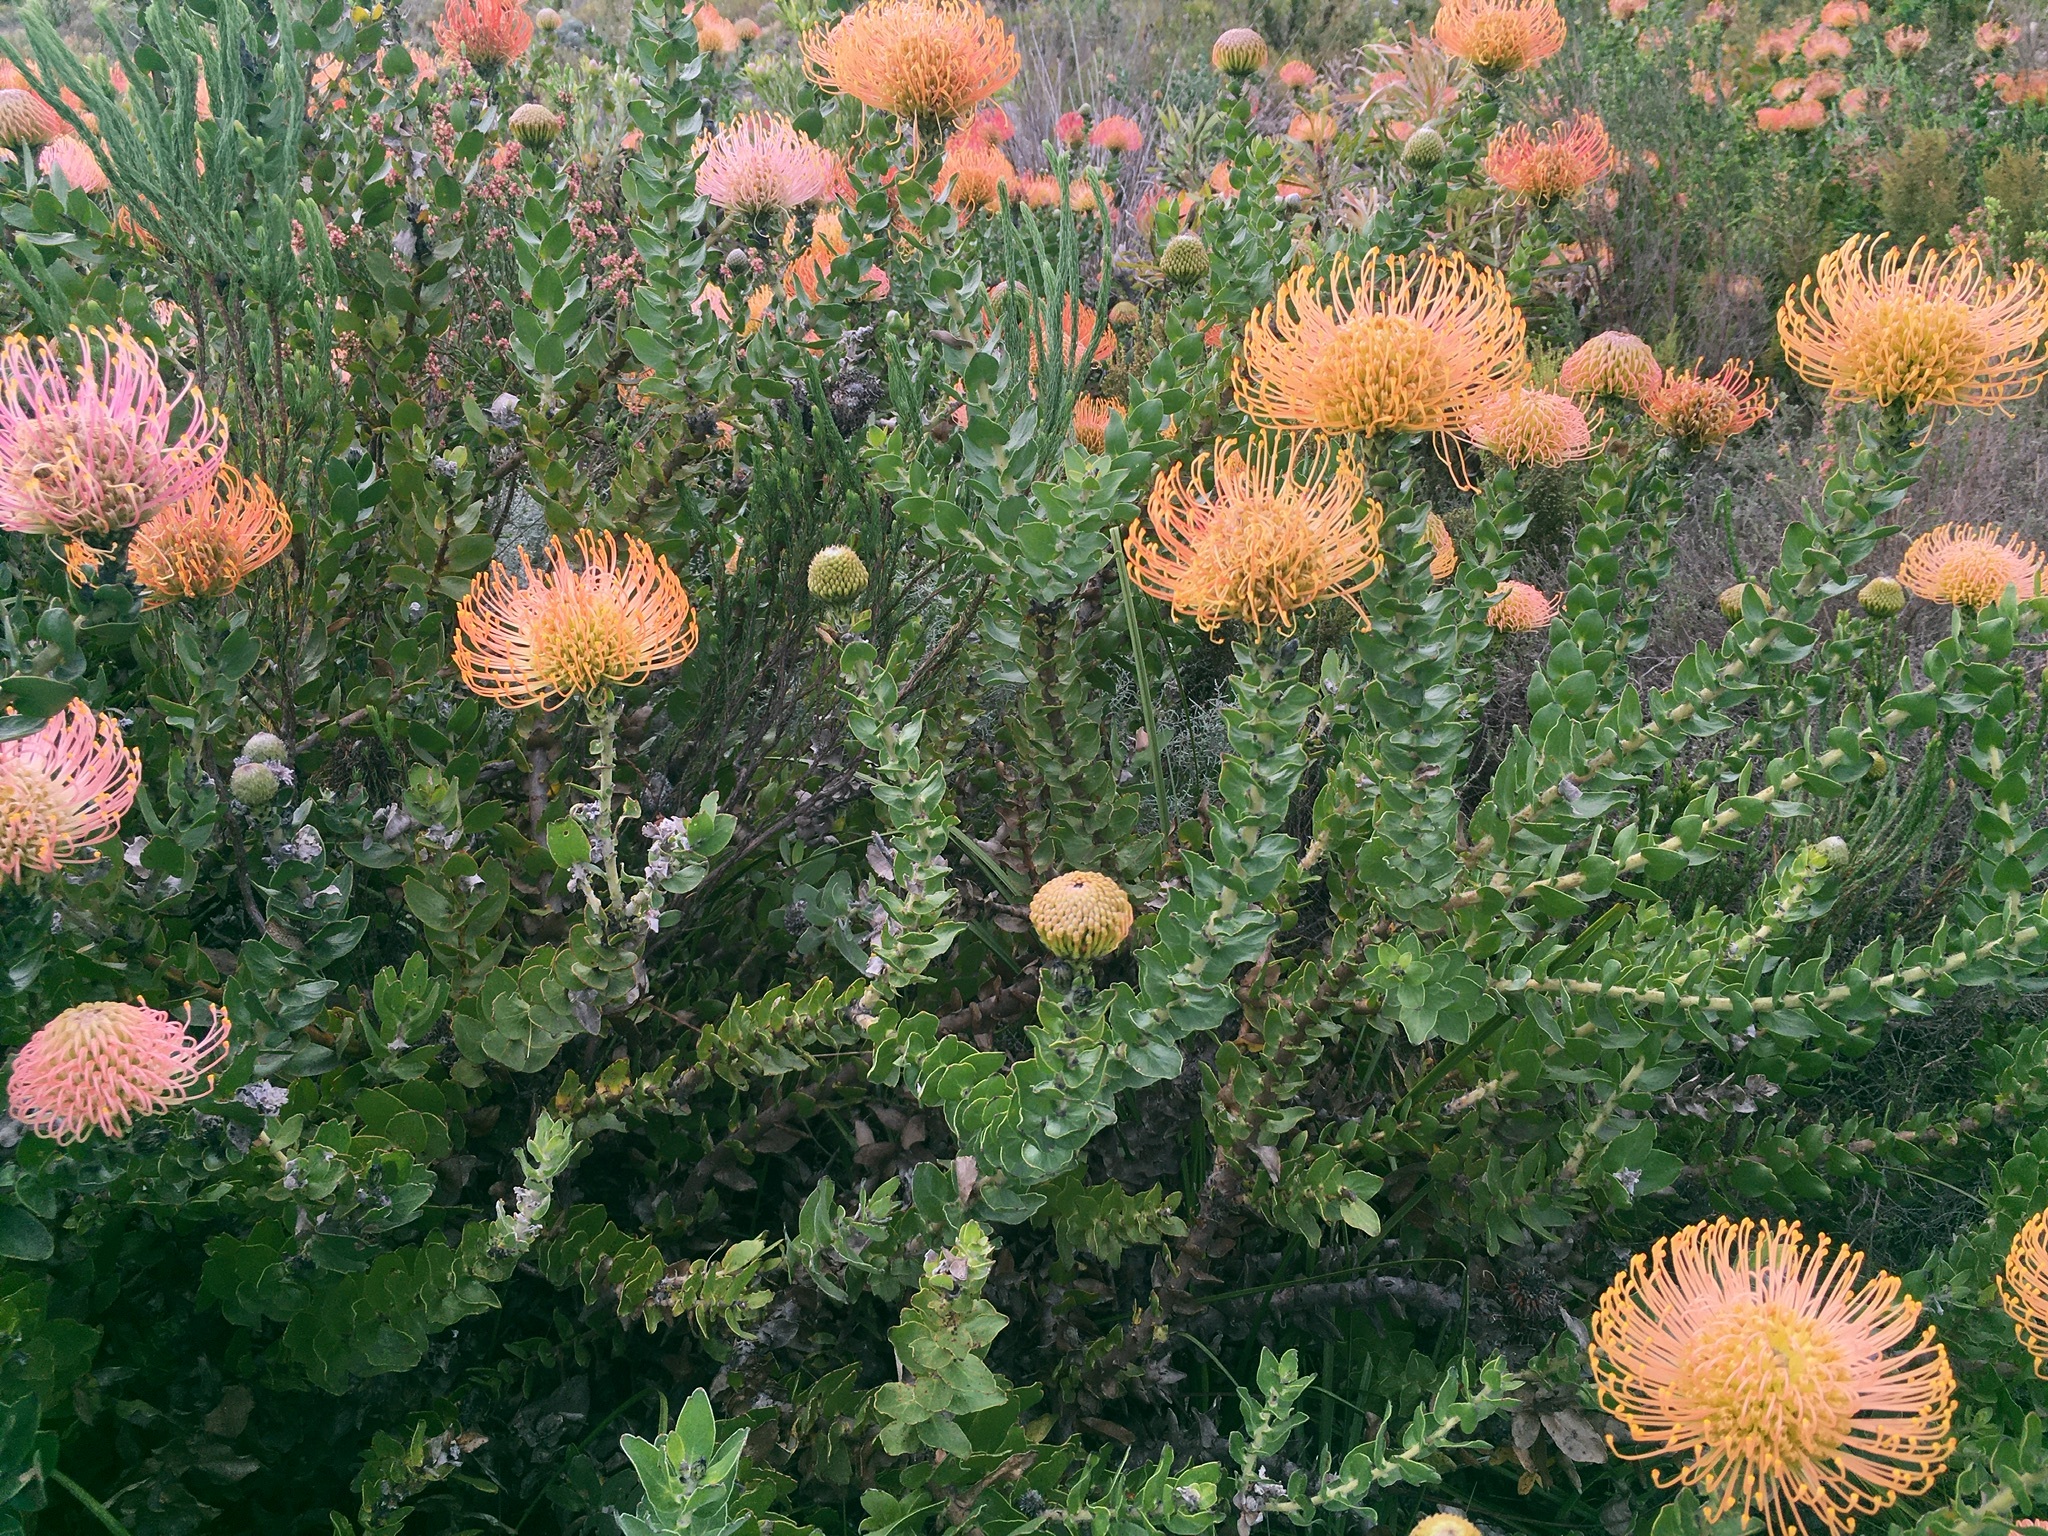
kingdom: Plantae
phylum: Tracheophyta
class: Magnoliopsida
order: Proteales
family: Proteaceae
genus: Leucospermum
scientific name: Leucospermum cordifolium
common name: Red pincushion-protea
